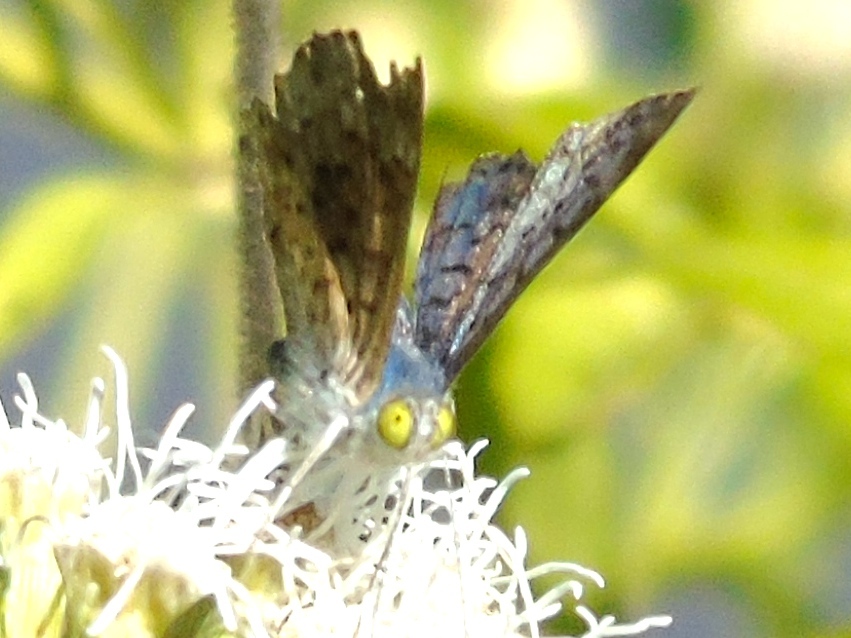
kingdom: Animalia
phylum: Arthropoda
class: Insecta
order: Lepidoptera
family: Riodinidae
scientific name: Riodinidae
